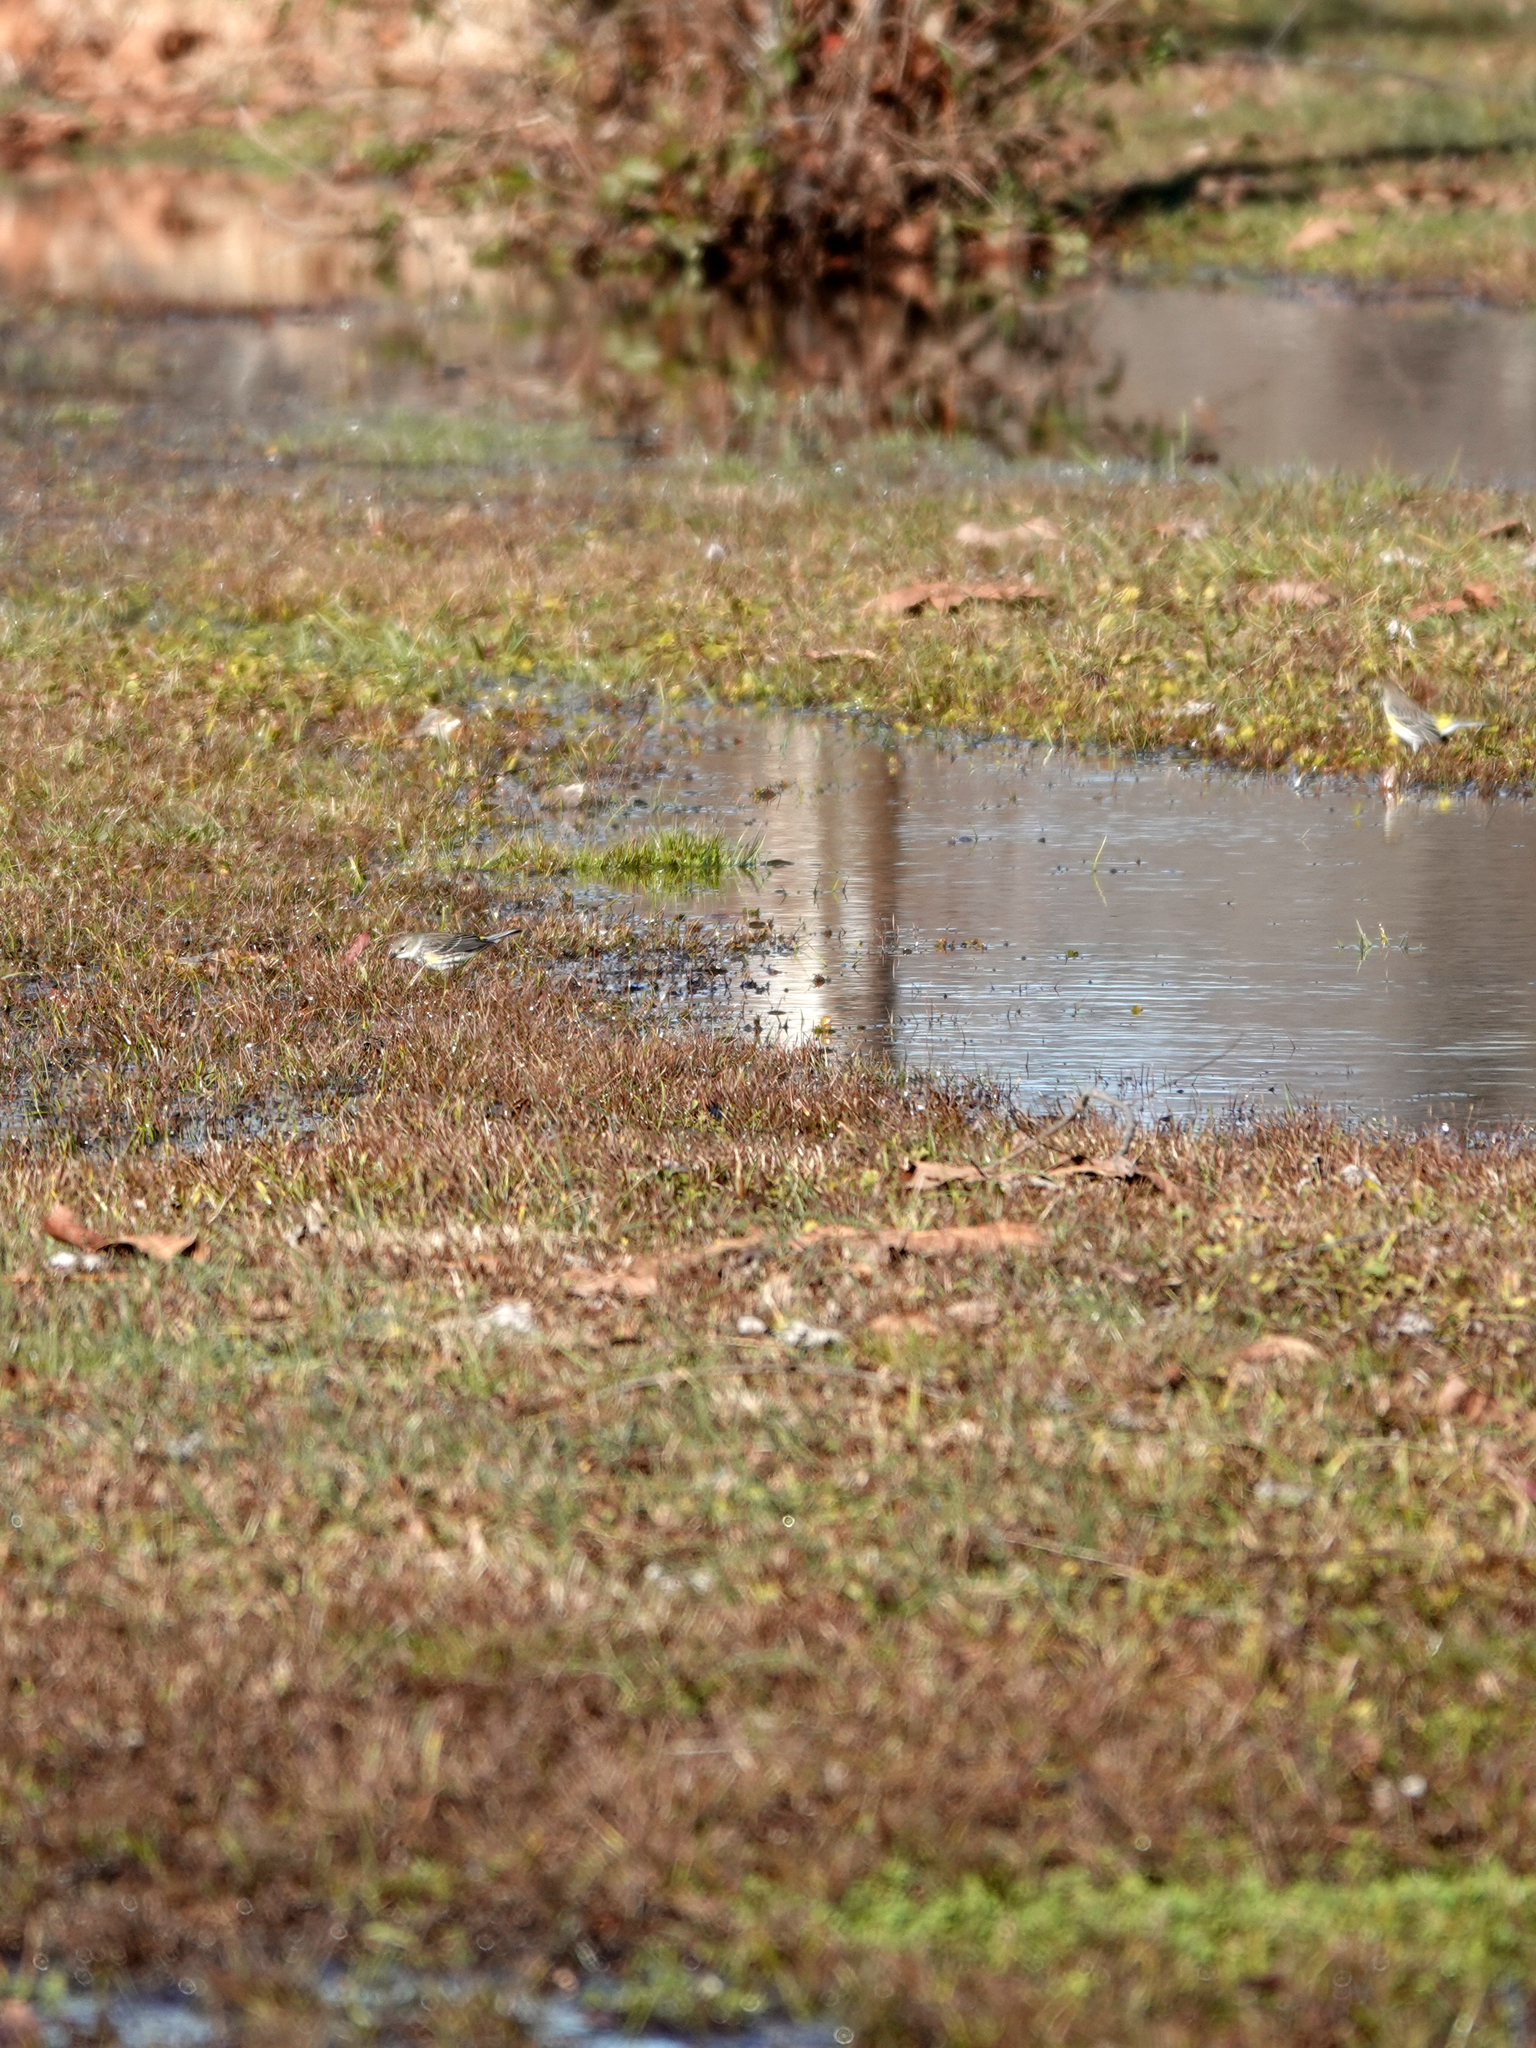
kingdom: Animalia
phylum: Chordata
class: Aves
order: Passeriformes
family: Parulidae
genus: Setophaga
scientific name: Setophaga coronata
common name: Myrtle warbler
